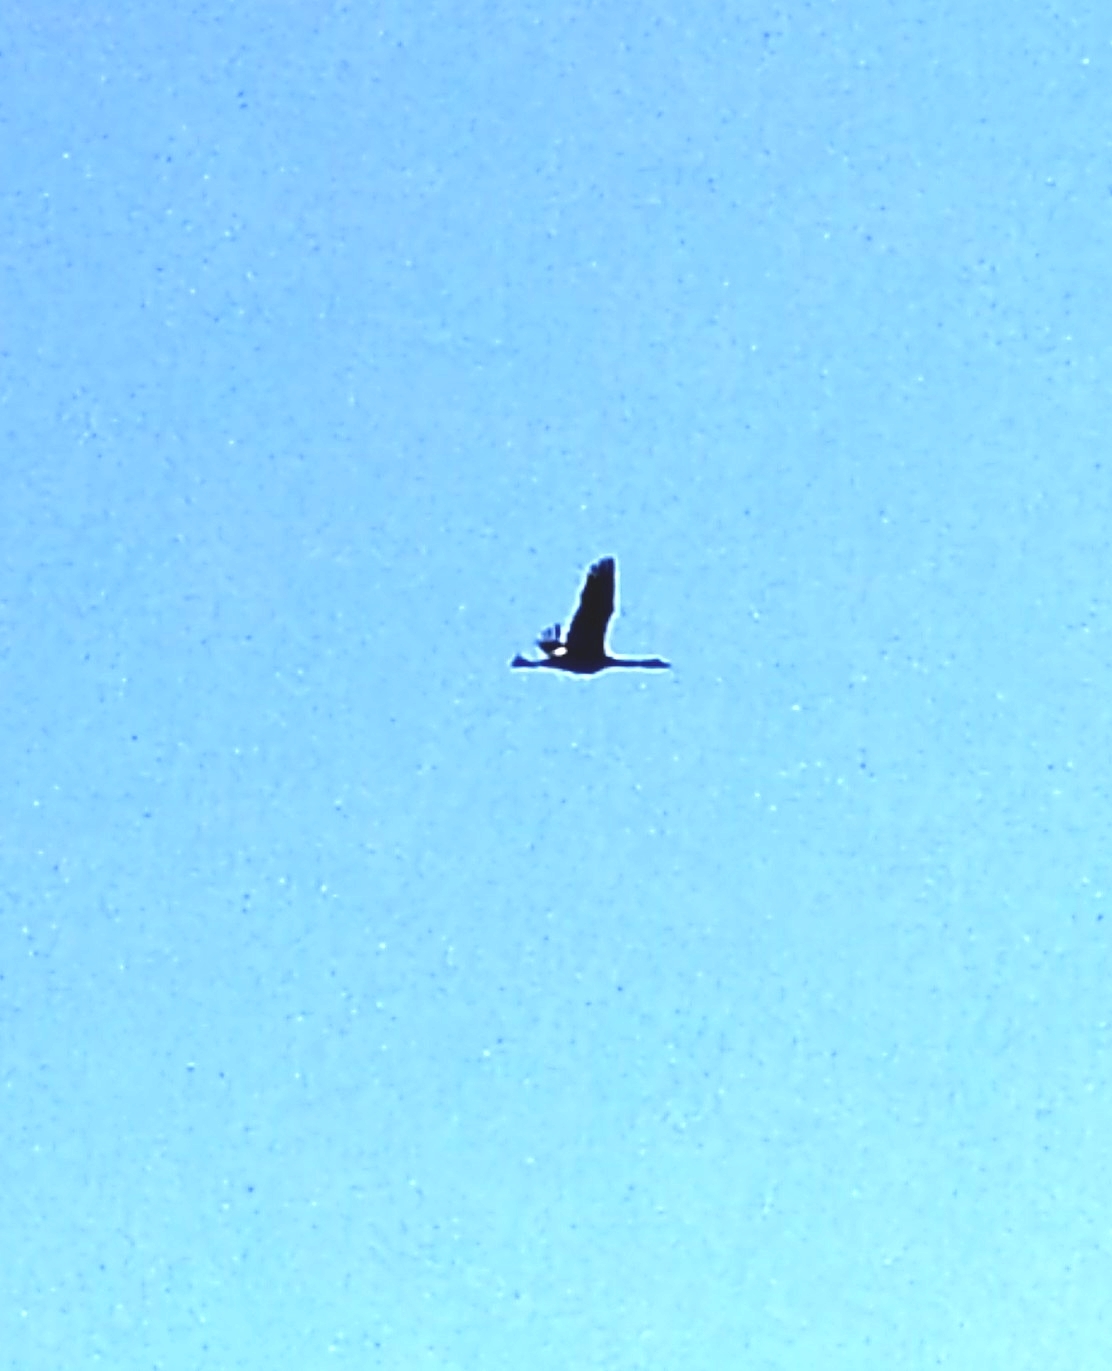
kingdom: Animalia
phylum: Chordata
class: Aves
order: Gruiformes
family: Gruidae
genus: Grus
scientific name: Grus grus
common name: Common crane
